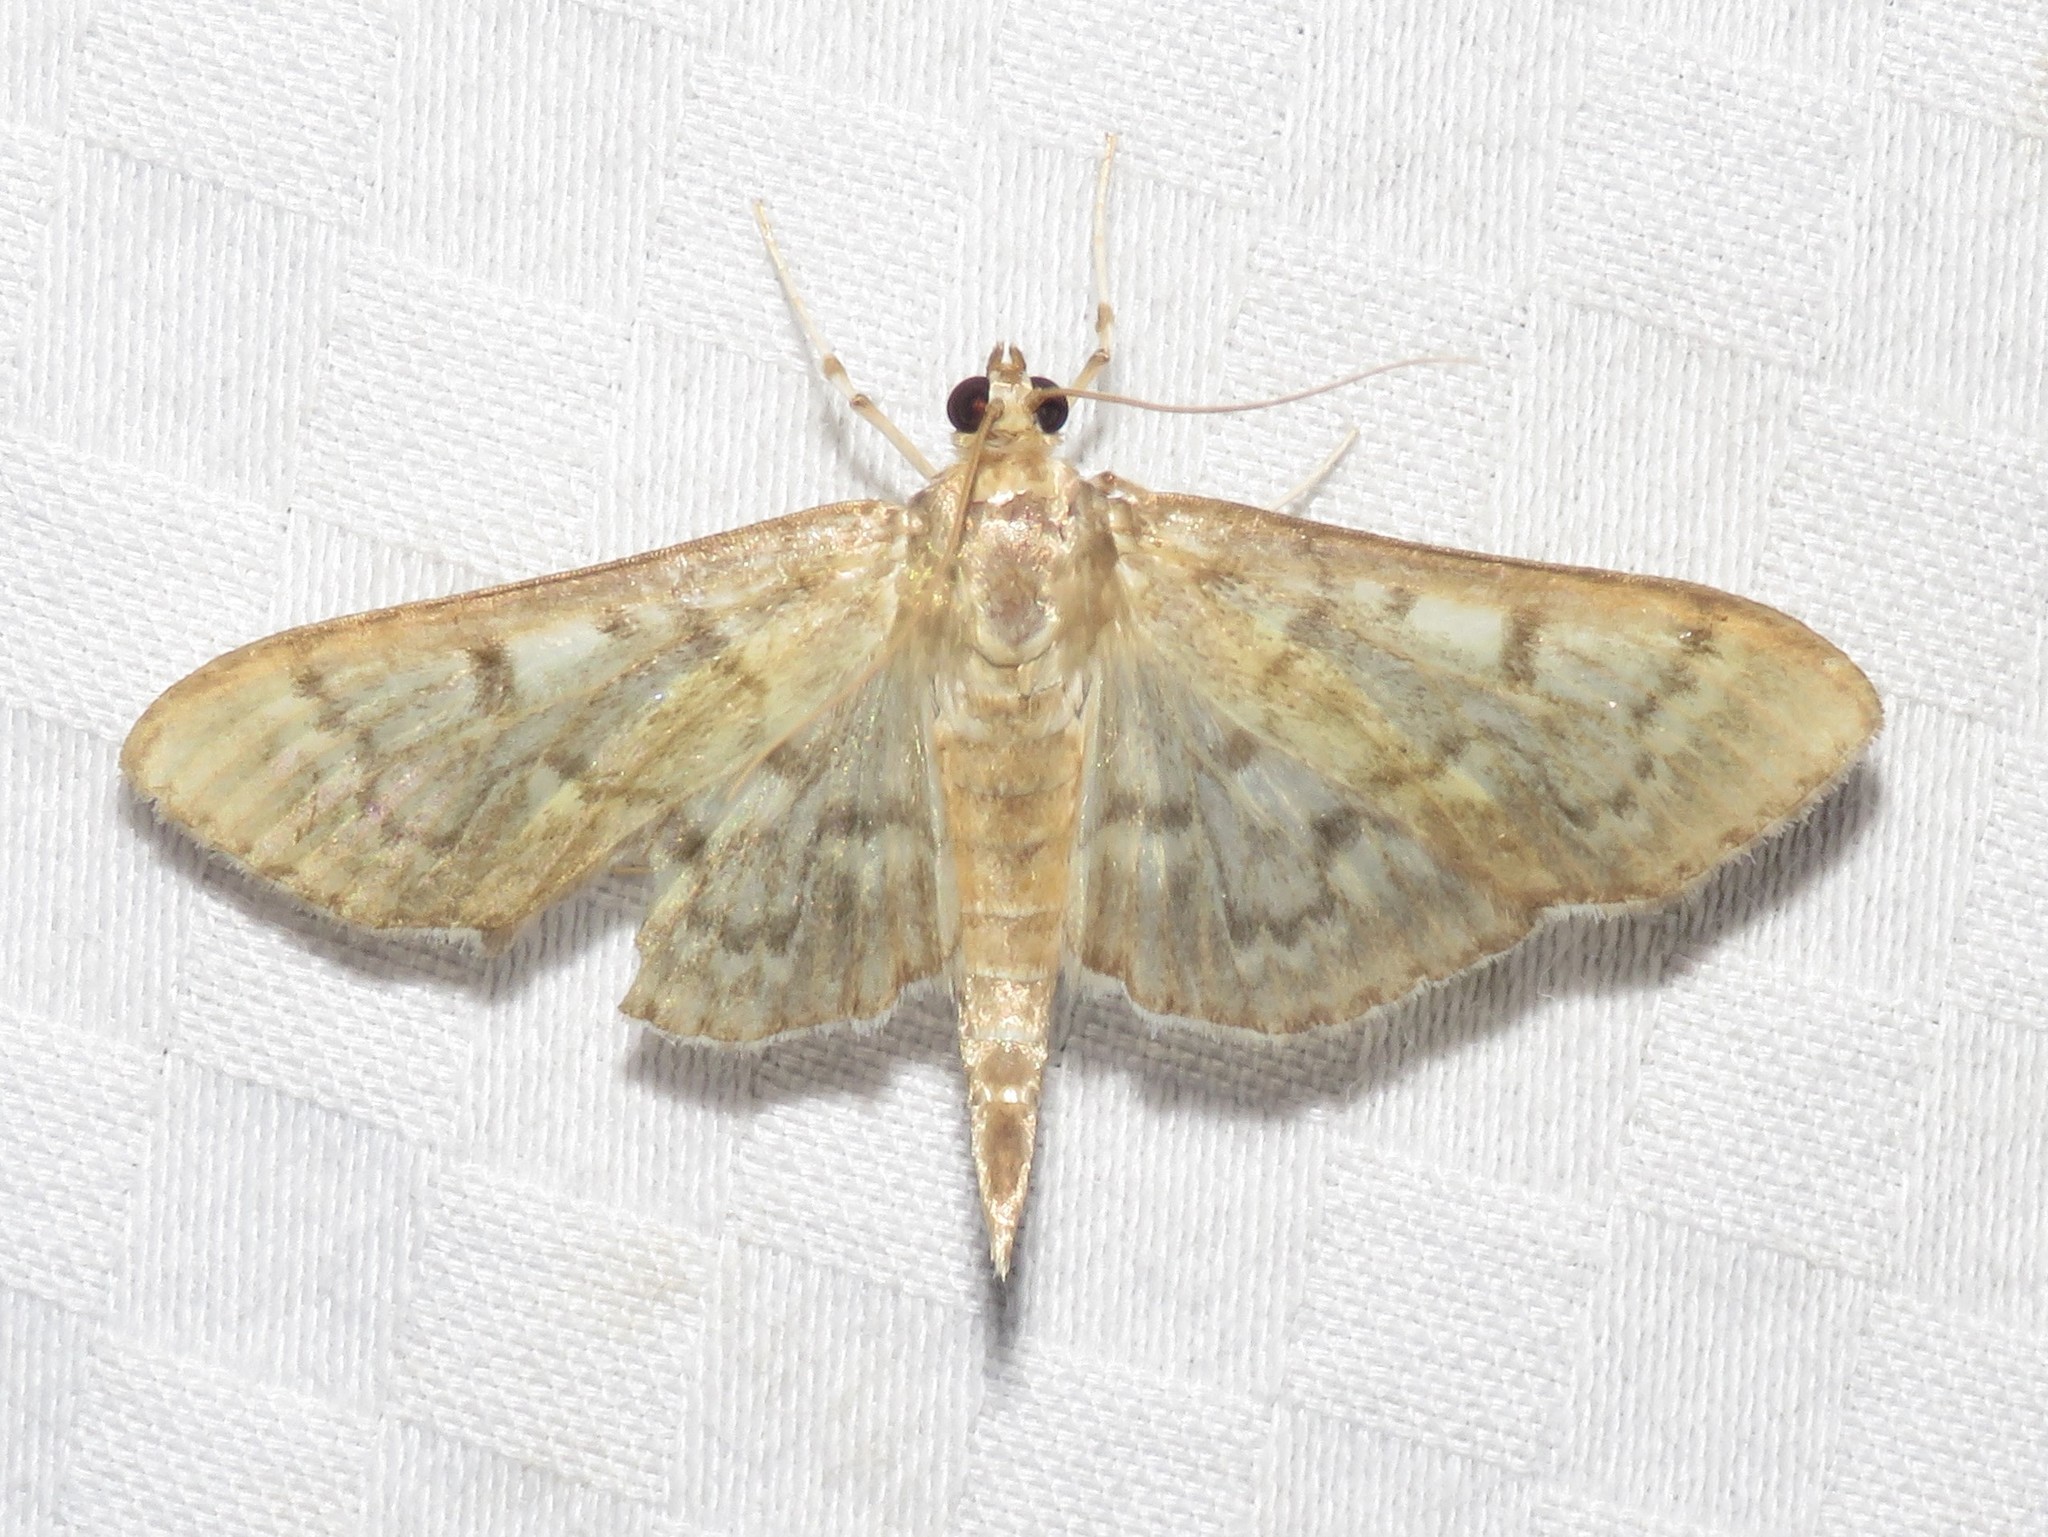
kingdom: Animalia
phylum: Arthropoda
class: Insecta
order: Lepidoptera
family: Crambidae
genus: Herpetogramma
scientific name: Herpetogramma aeglealis
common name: Serpentine webworm moth
